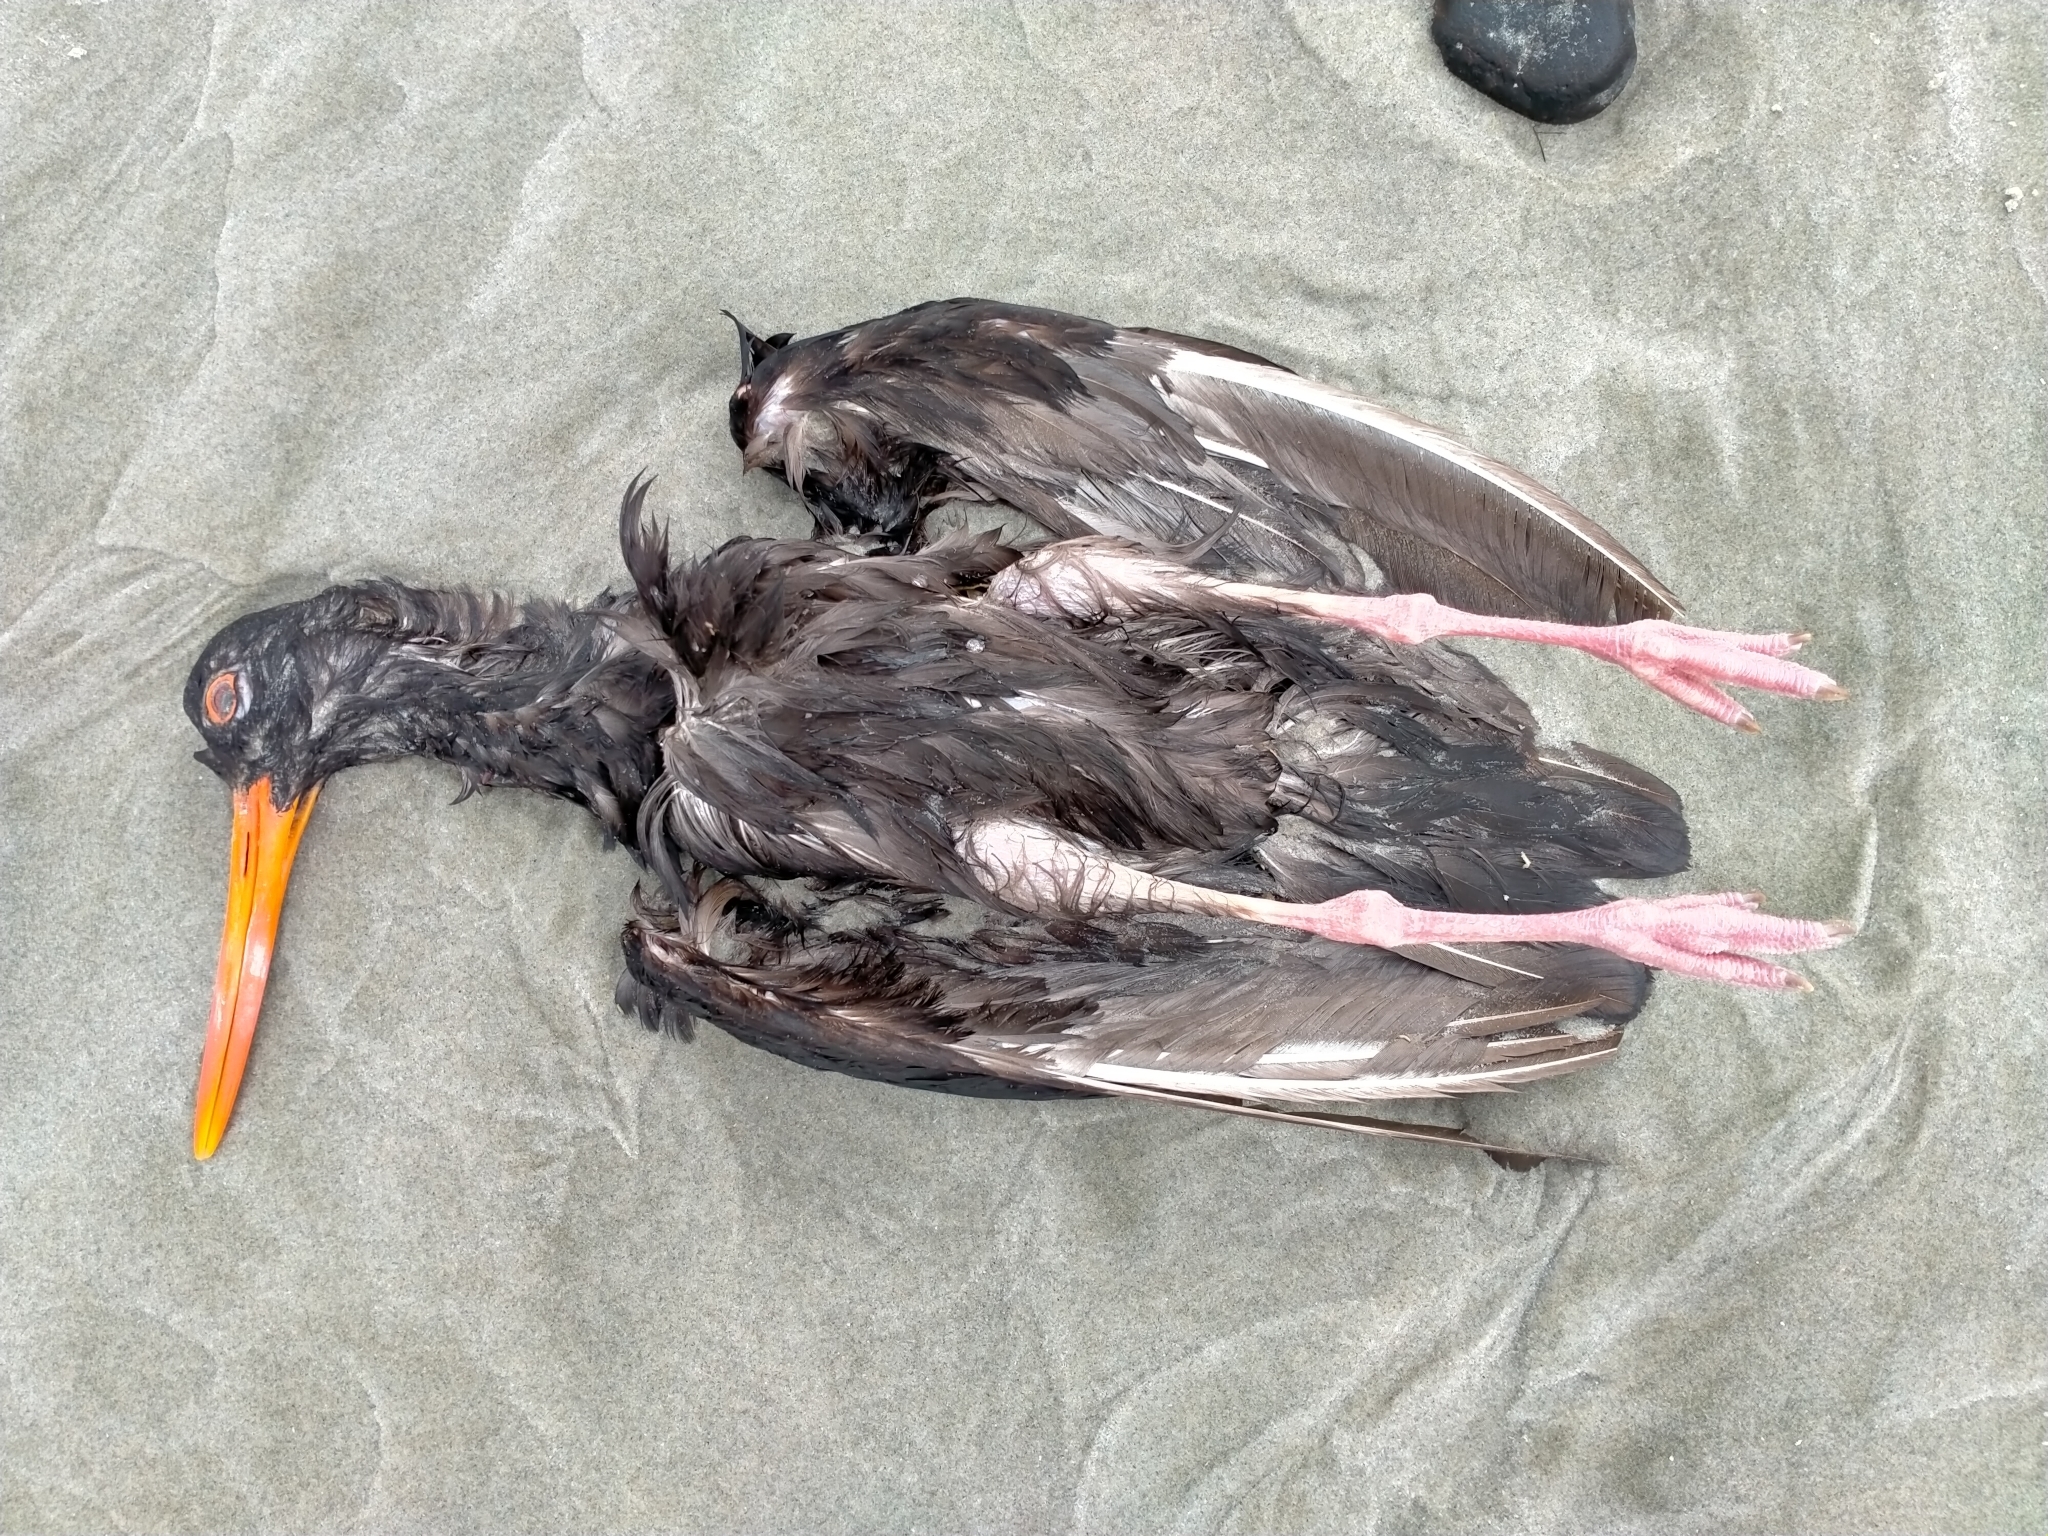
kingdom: Animalia
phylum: Chordata
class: Aves
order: Charadriiformes
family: Haematopodidae
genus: Haematopus
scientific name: Haematopus unicolor
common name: Variable oystercatcher
